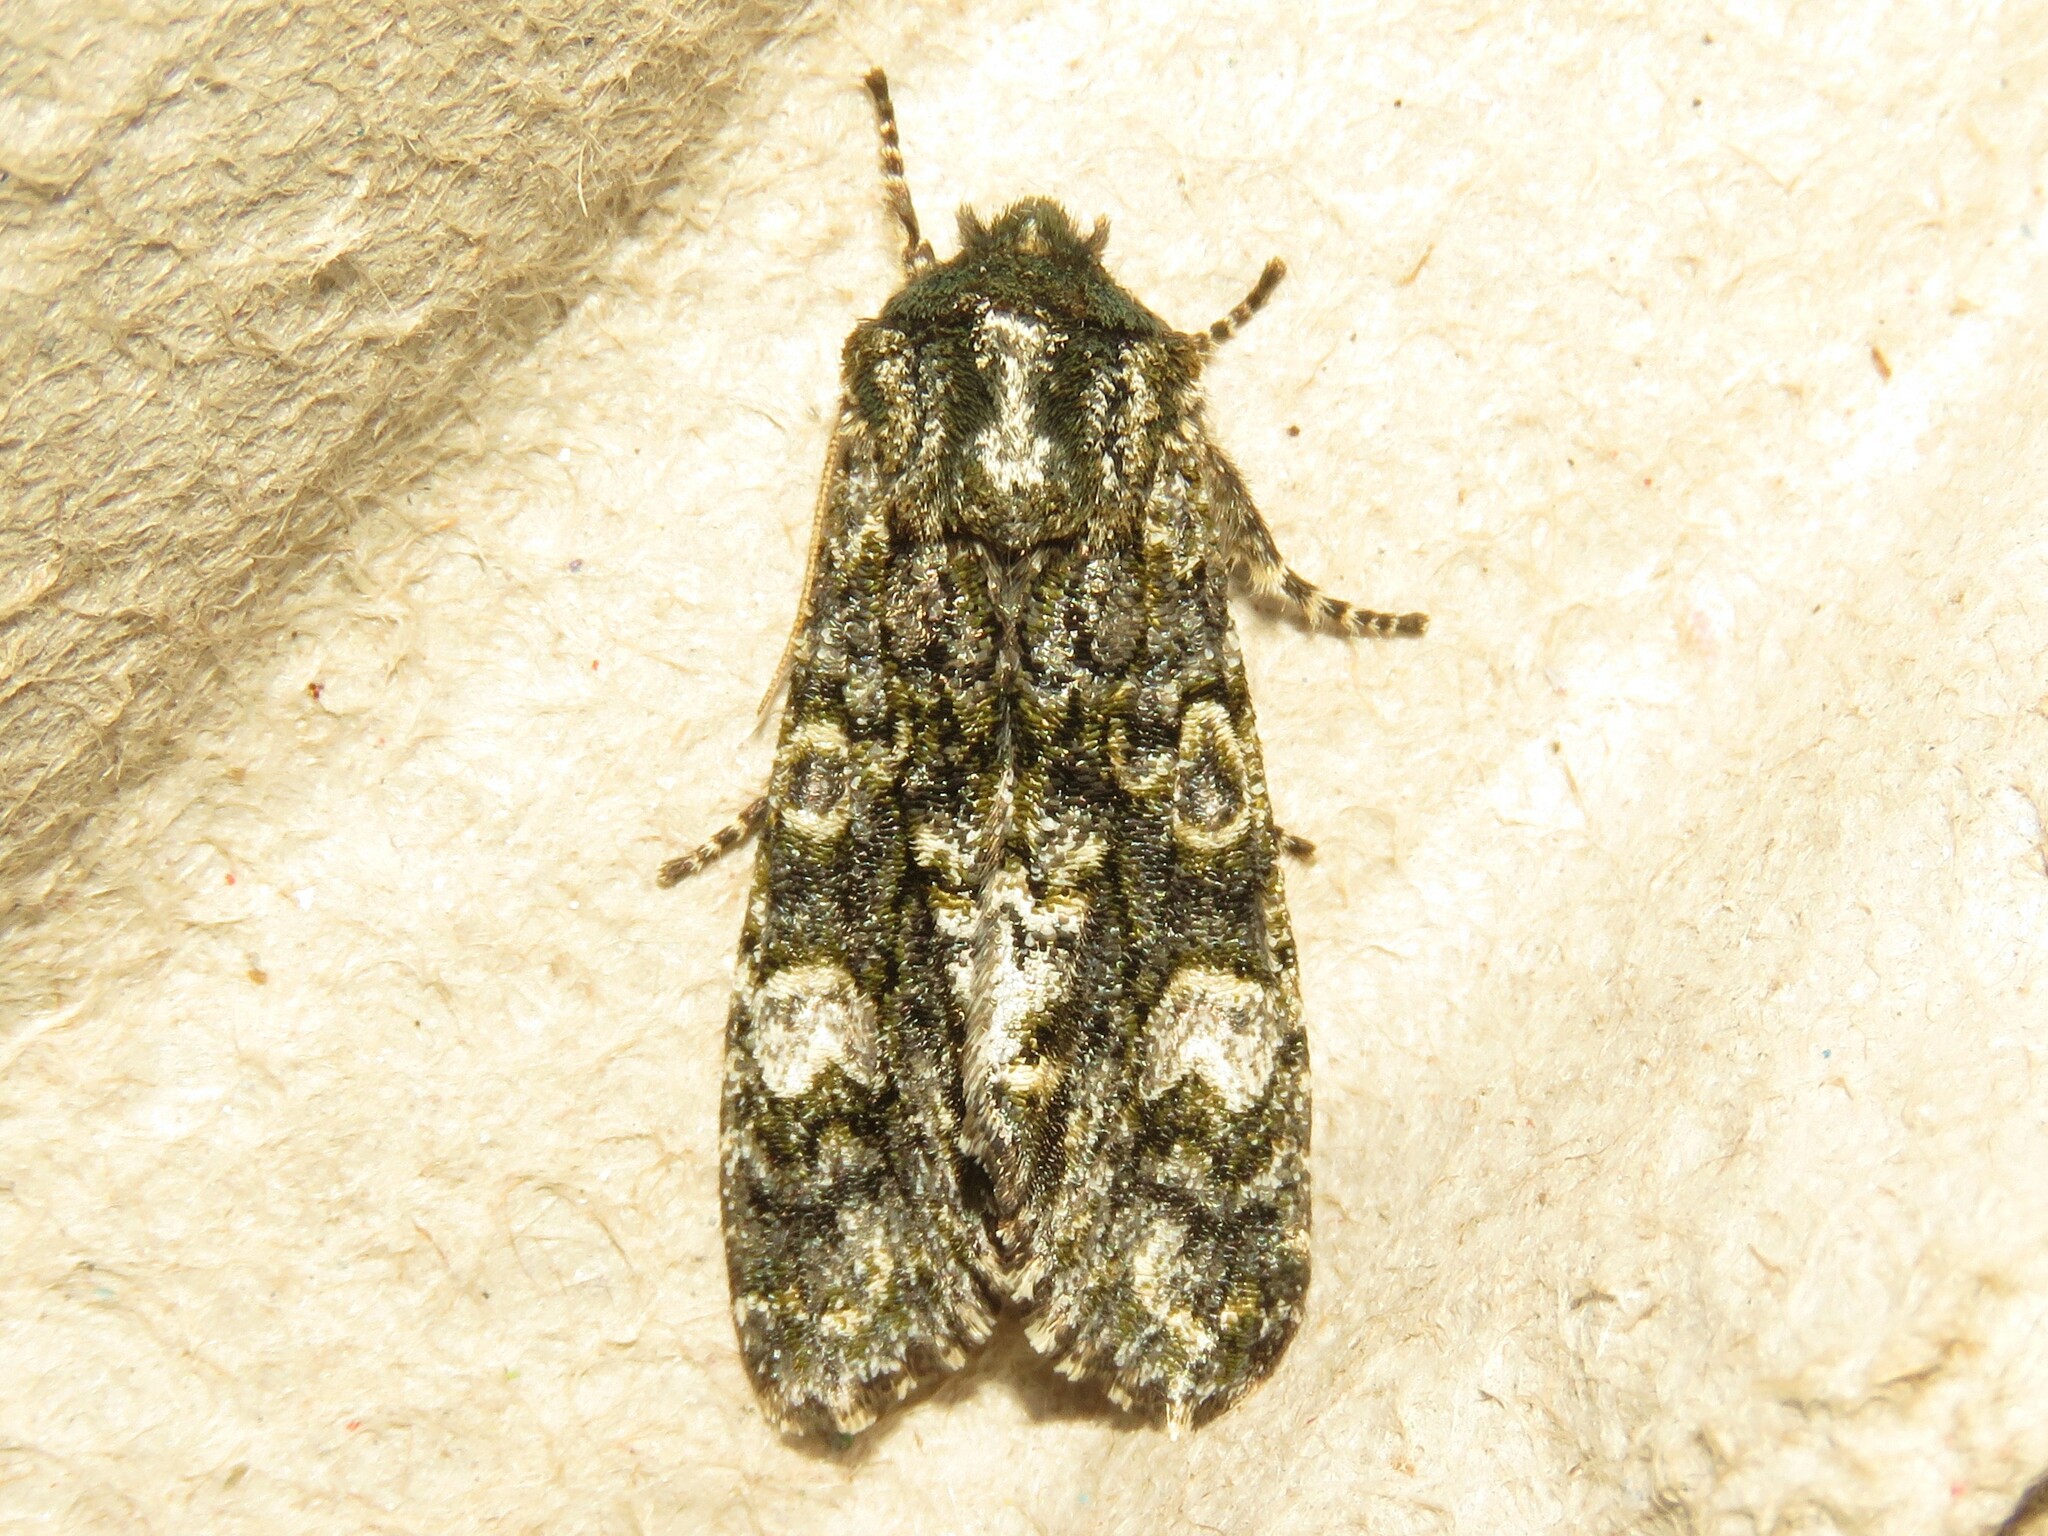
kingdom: Animalia
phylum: Arthropoda
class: Insecta
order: Lepidoptera
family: Noctuidae
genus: Psaphida
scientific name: Psaphida grotei
